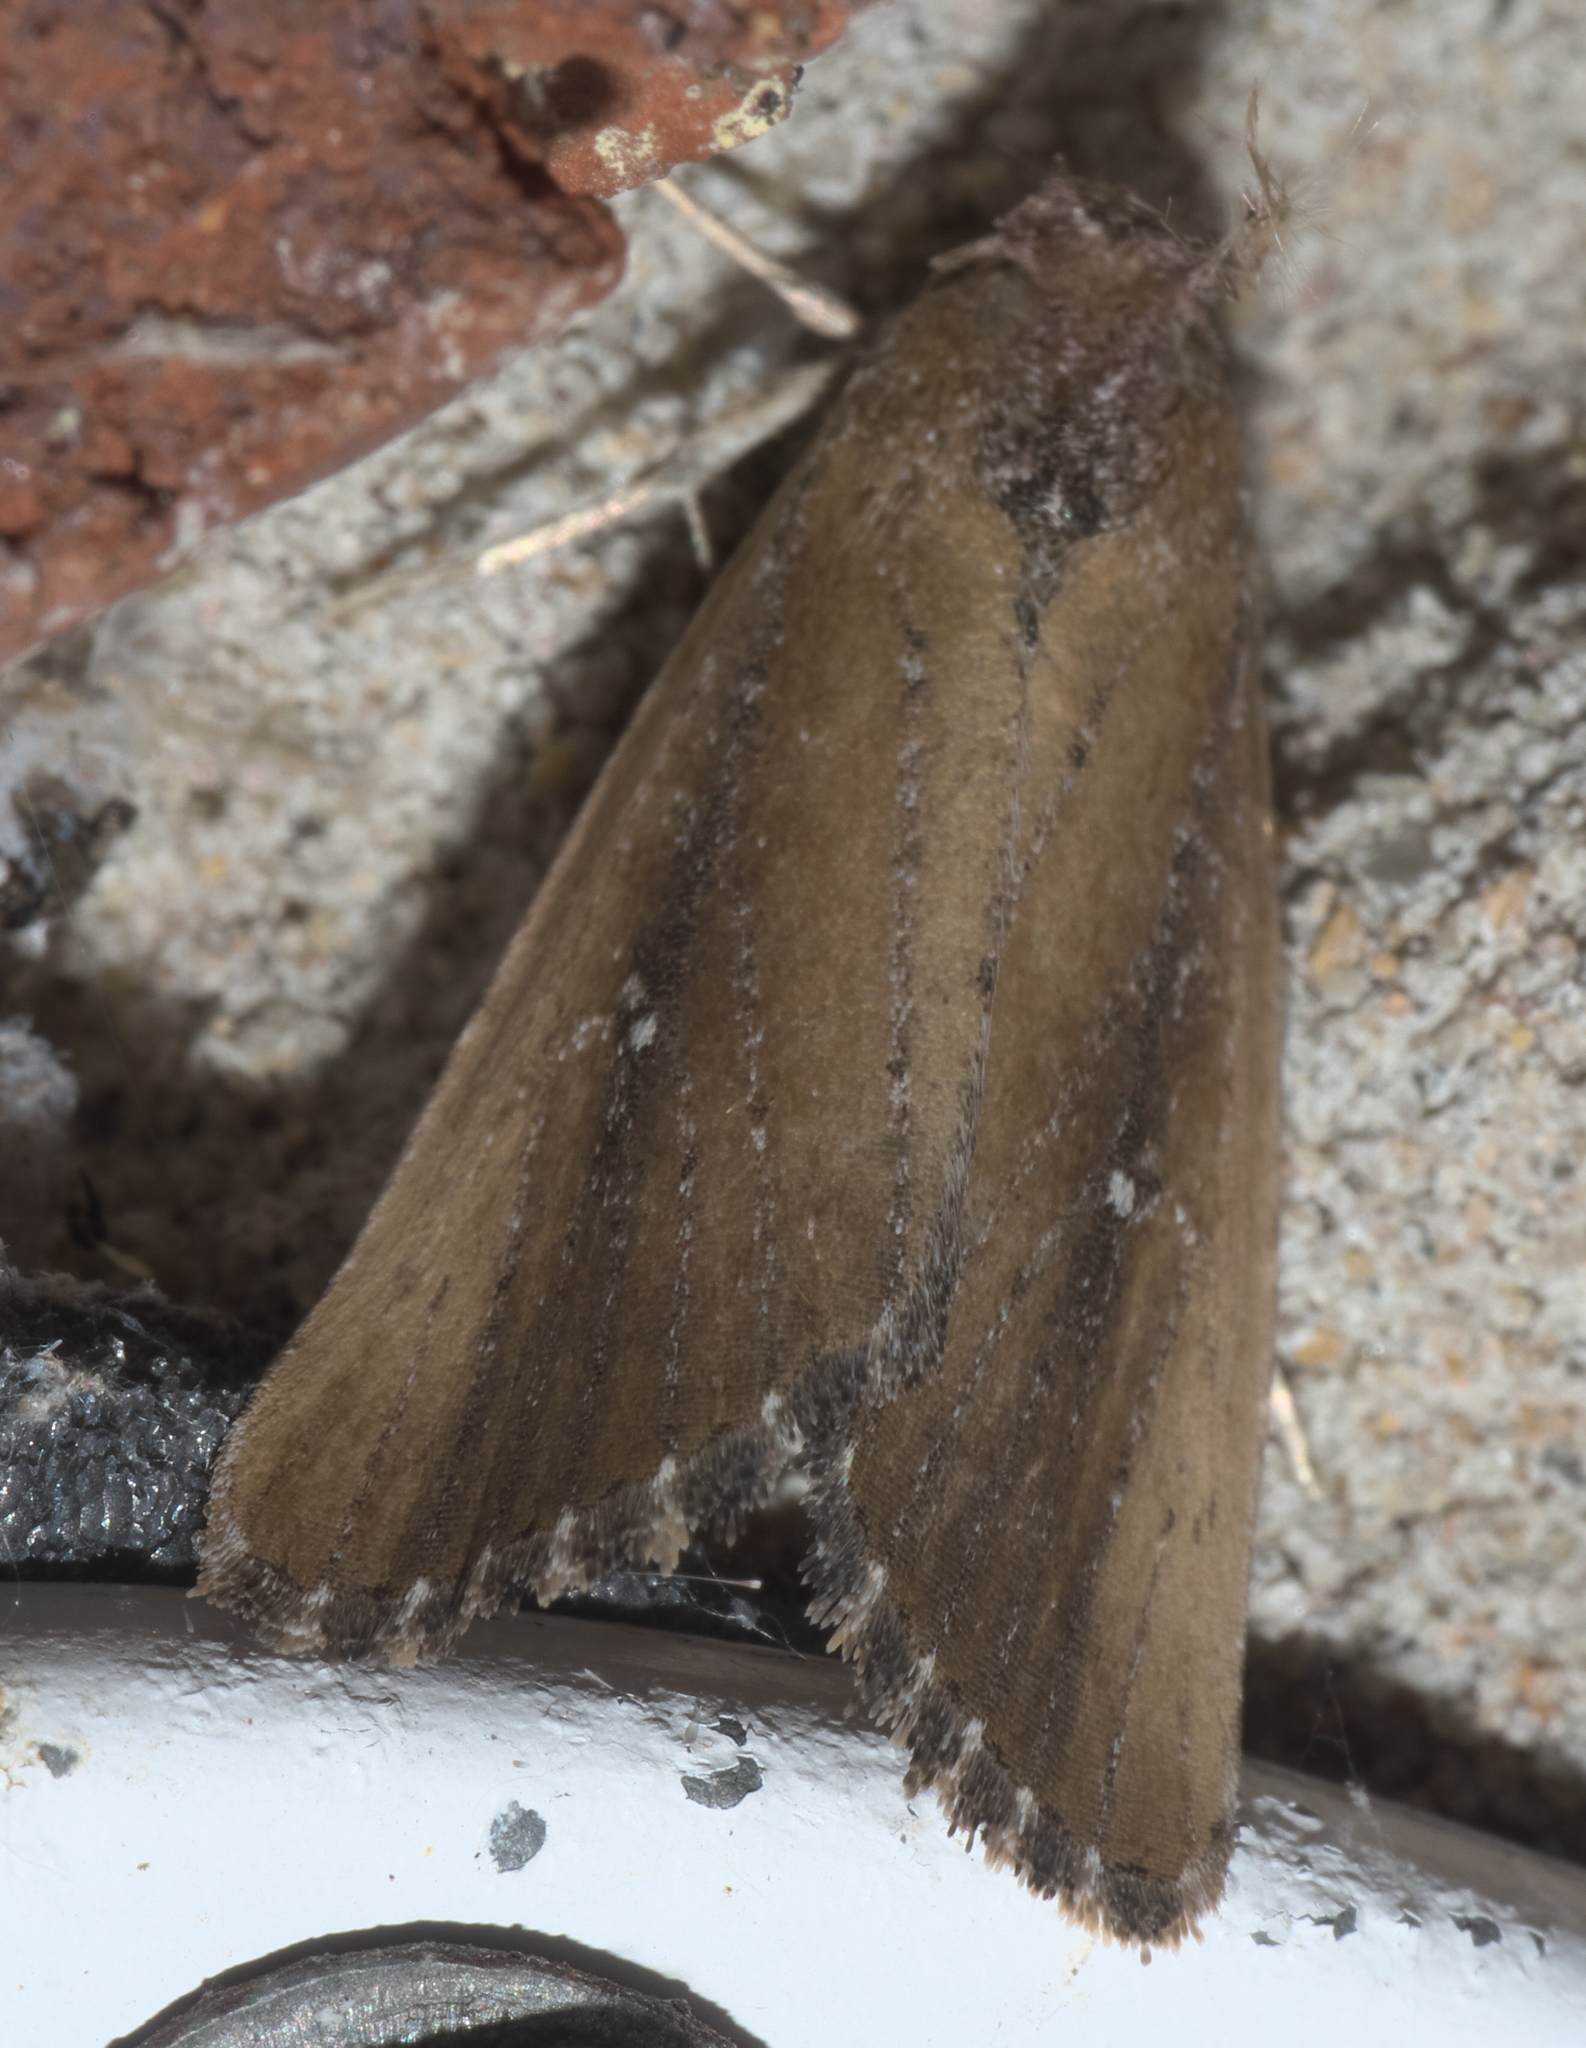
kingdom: Animalia
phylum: Arthropoda
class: Insecta
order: Lepidoptera
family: Noctuidae
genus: Condica
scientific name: Condica videns
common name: White-dotted groundling
